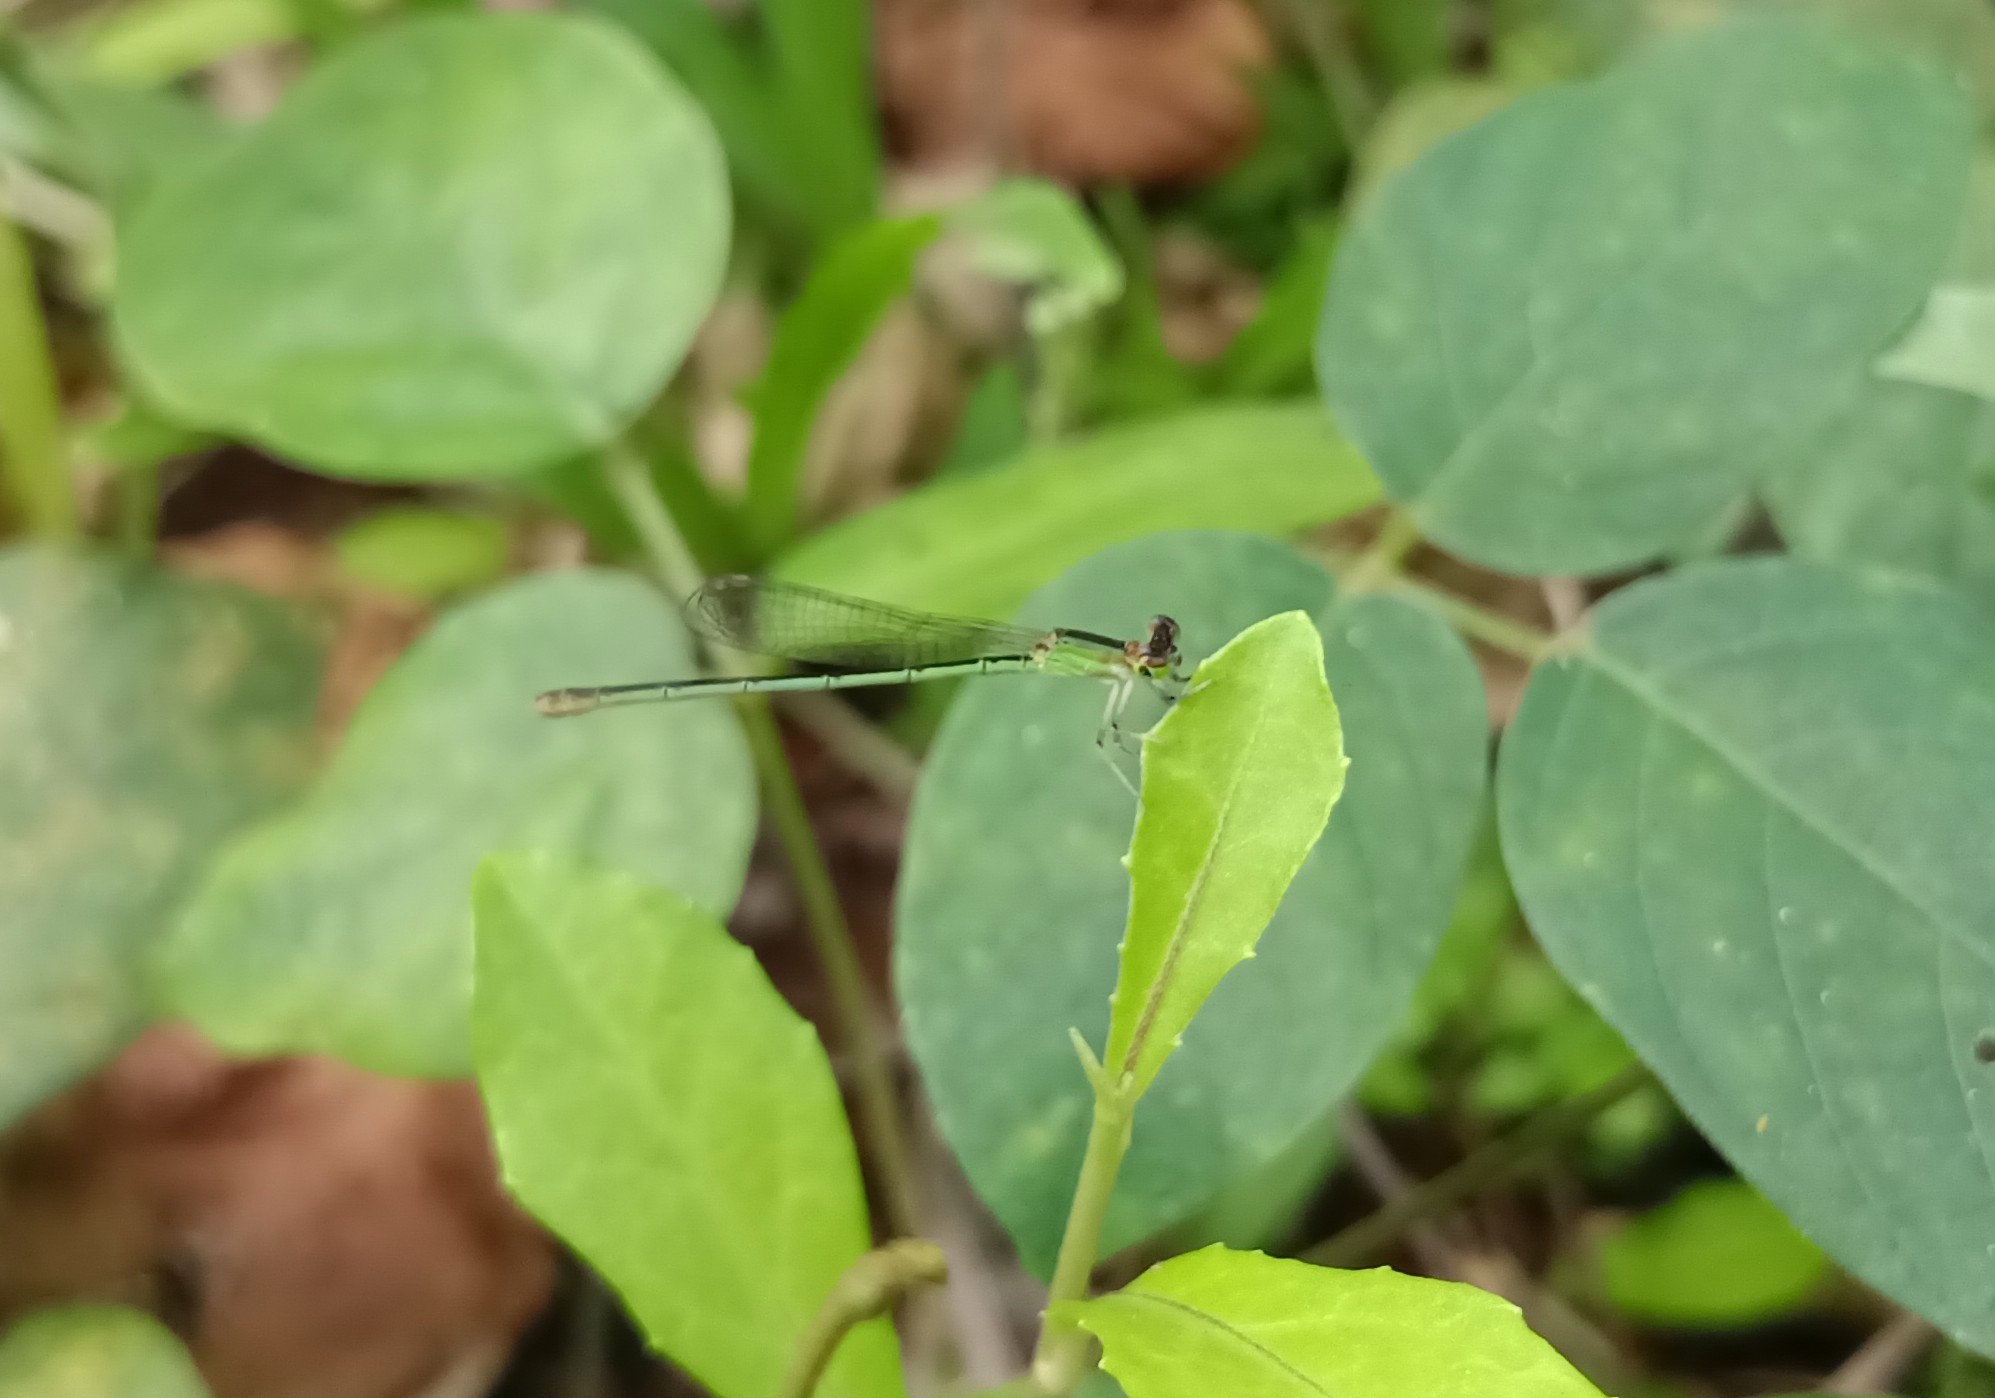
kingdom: Animalia
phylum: Arthropoda
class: Insecta
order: Odonata
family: Coenagrionidae
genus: Agriocnemis
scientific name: Agriocnemis pygmaea
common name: Pygmy wisp
